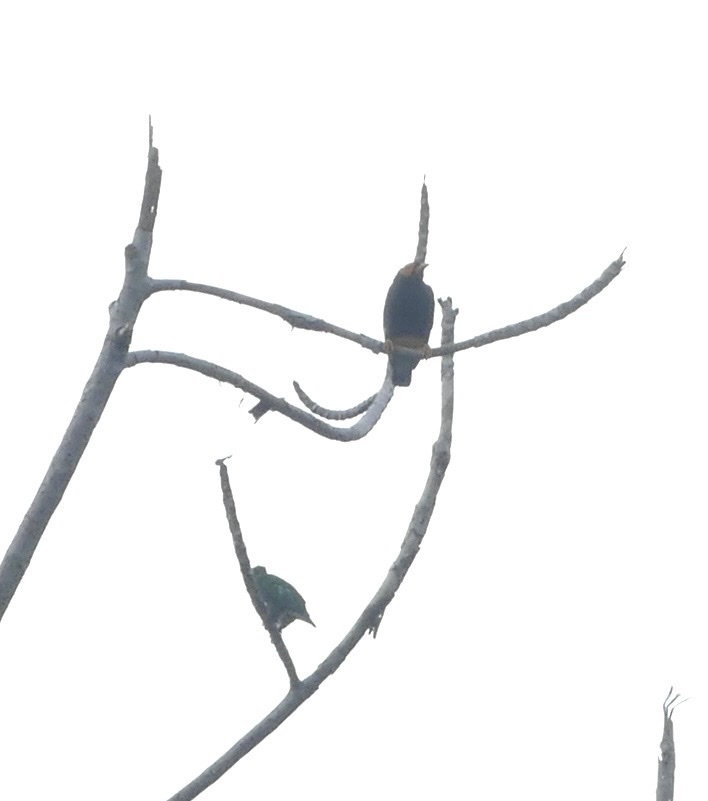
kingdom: Animalia
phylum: Chordata
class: Aves
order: Passeriformes
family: Sturnidae
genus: Mino
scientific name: Mino dumontii
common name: Yellow-faced myna
